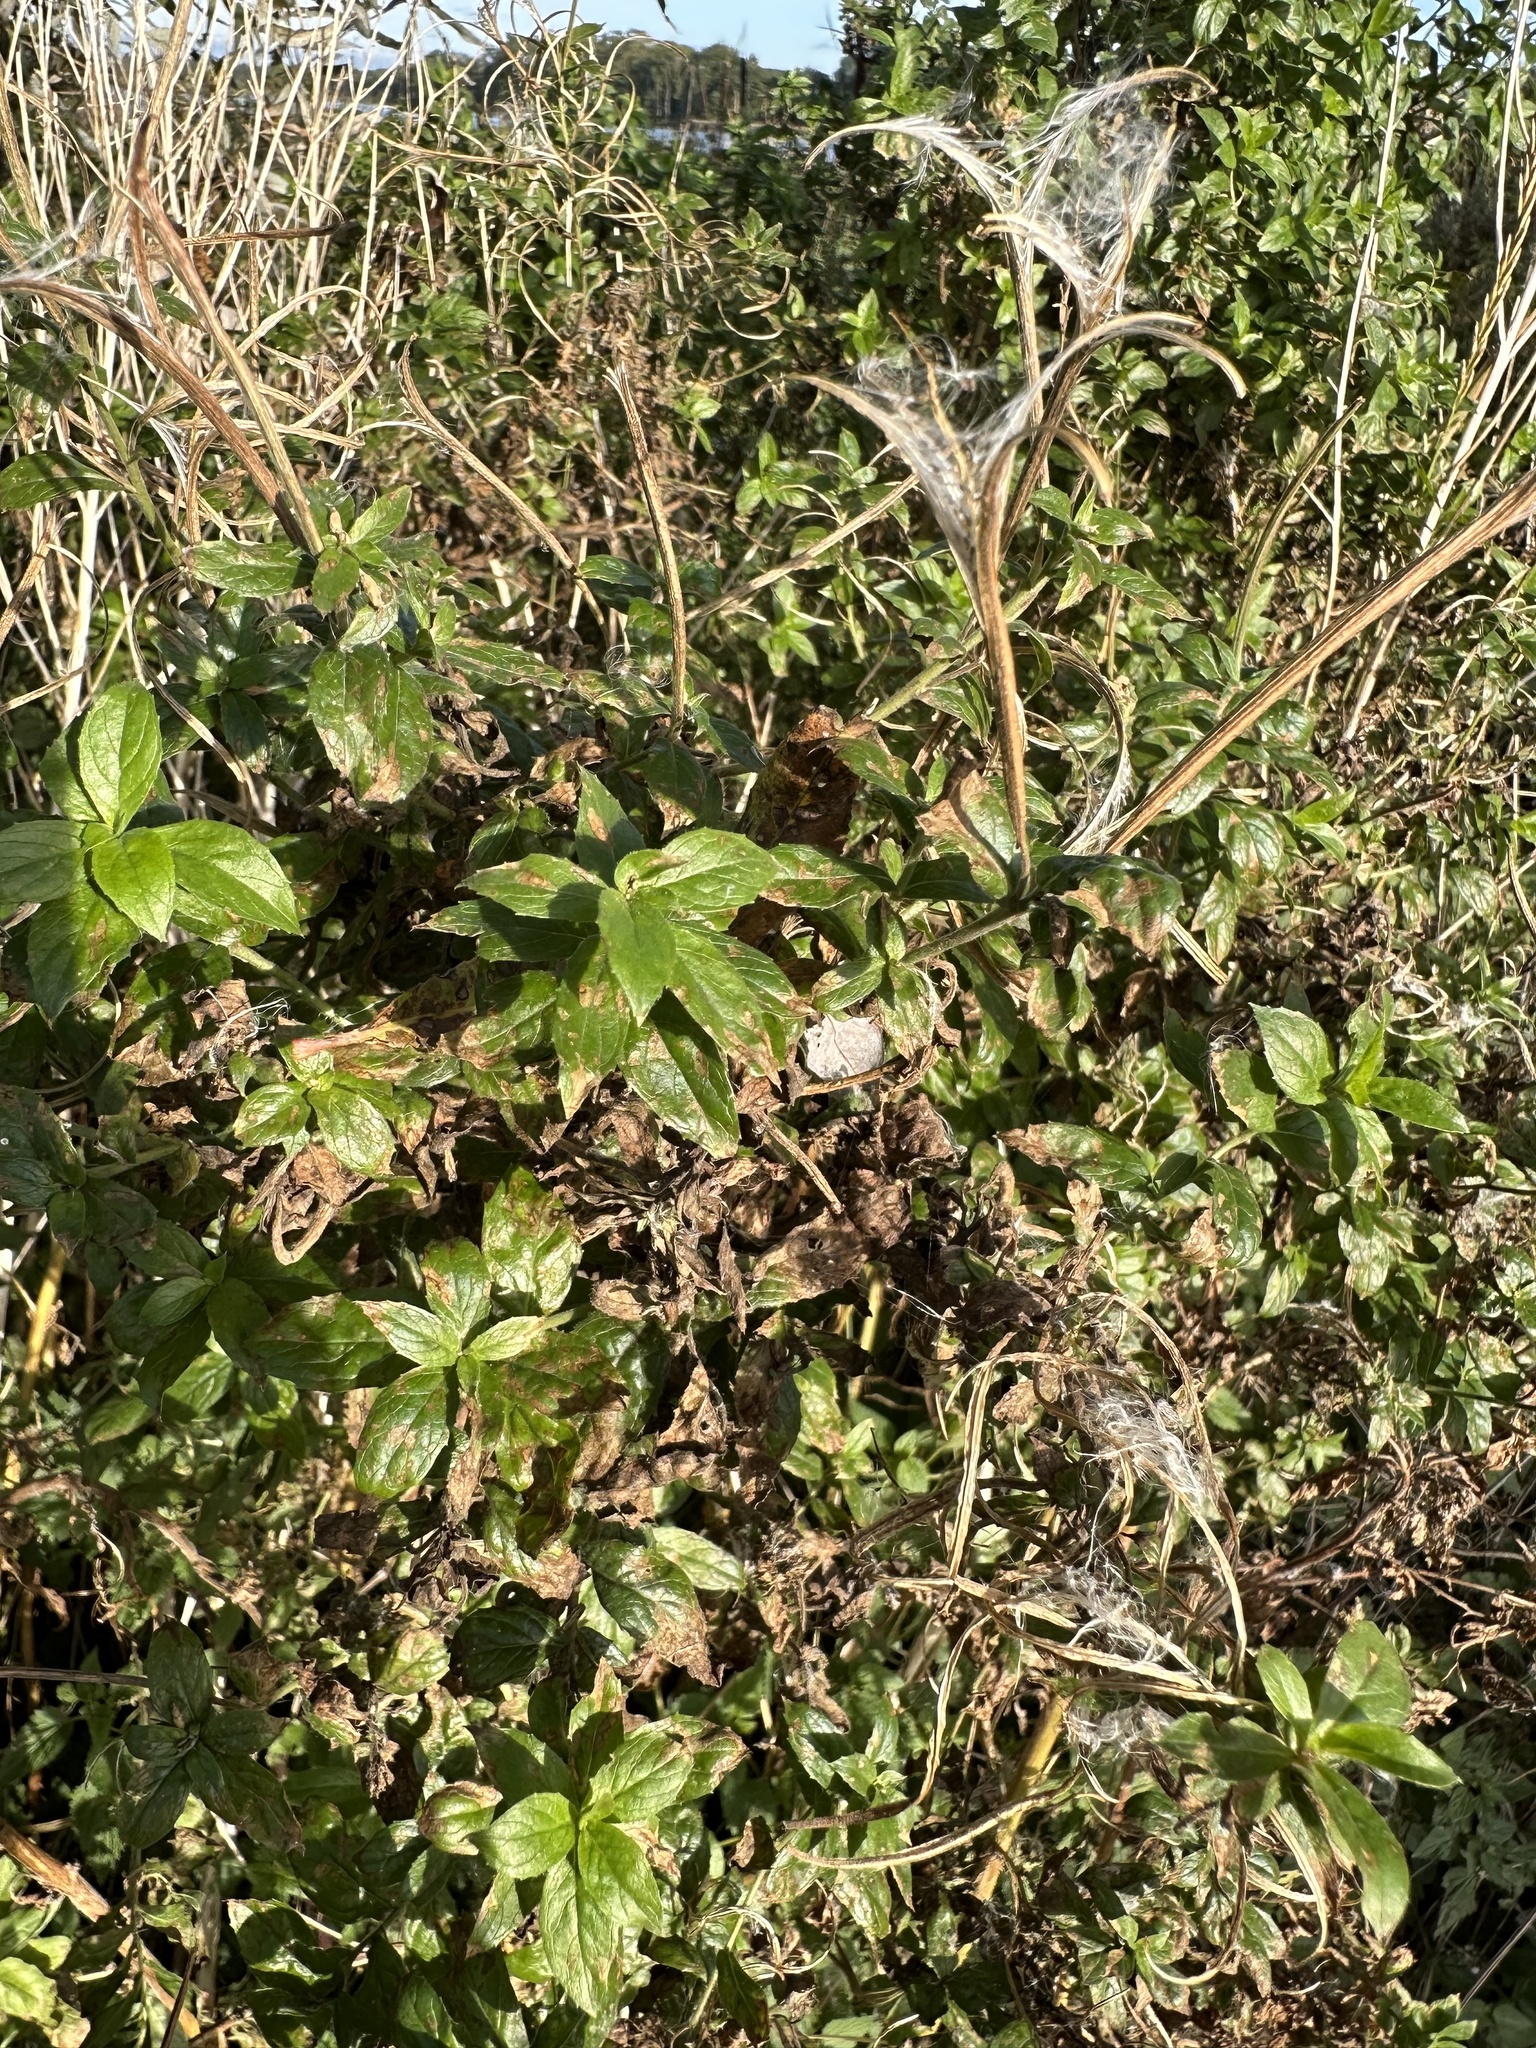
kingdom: Plantae
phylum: Tracheophyta
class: Magnoliopsida
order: Myrtales
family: Onagraceae
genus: Epilobium
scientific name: Epilobium hirsutum
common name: Great willowherb
